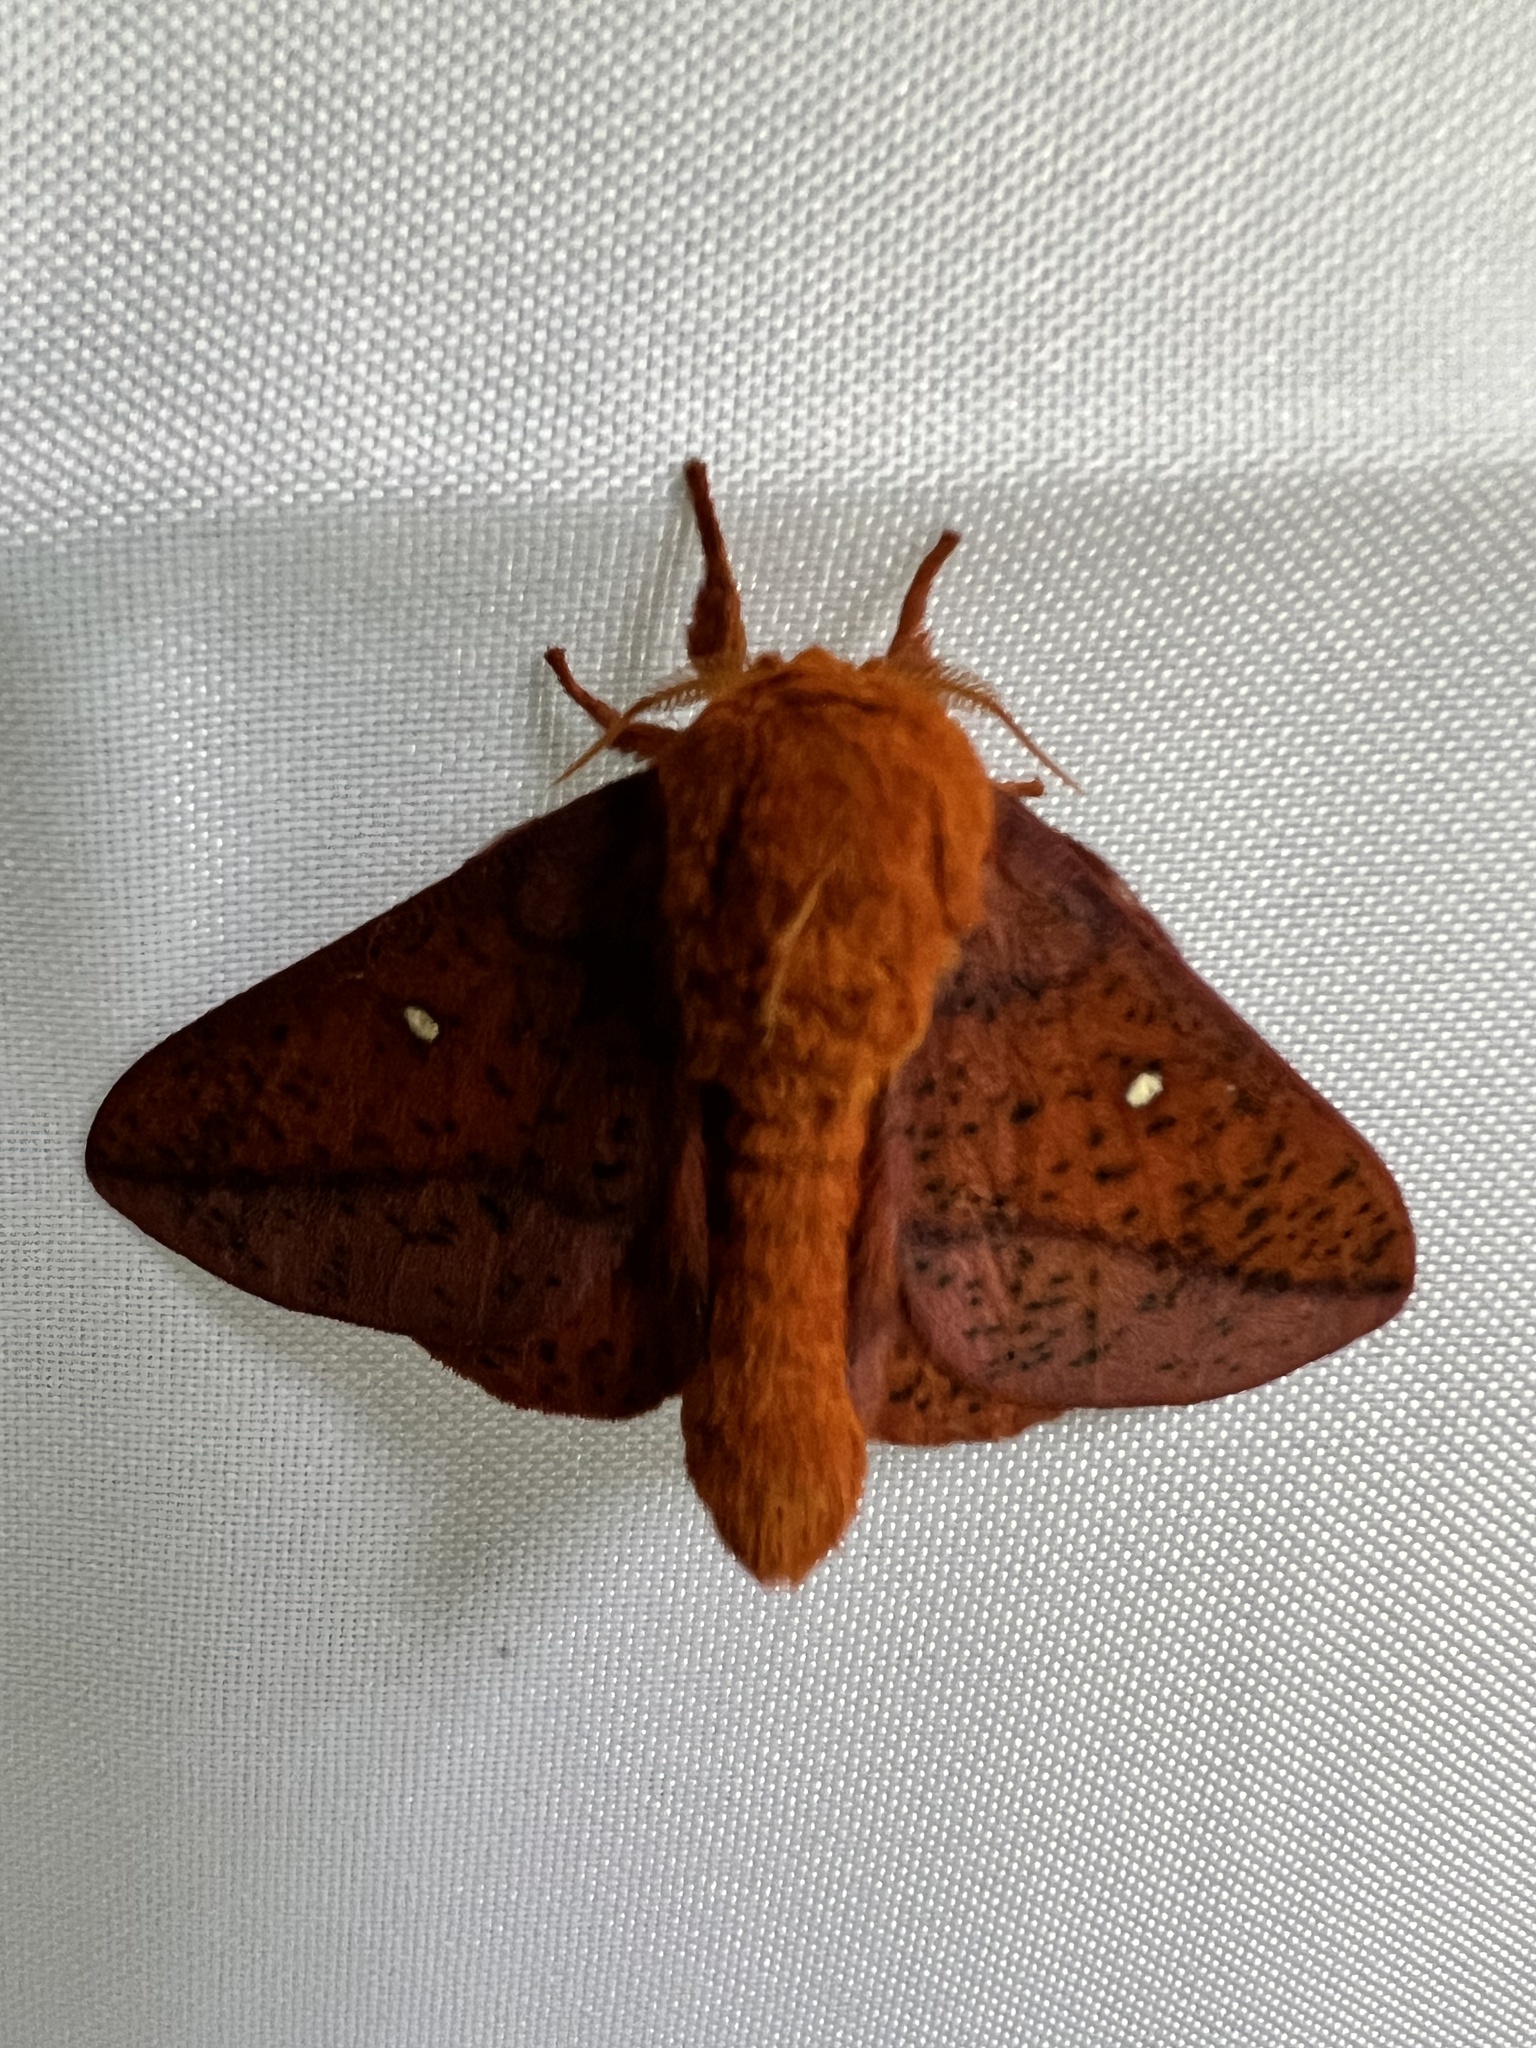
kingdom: Animalia
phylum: Arthropoda
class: Insecta
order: Lepidoptera
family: Saturniidae
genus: Anisota
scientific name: Anisota stigma
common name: Spiny oakworm moth
